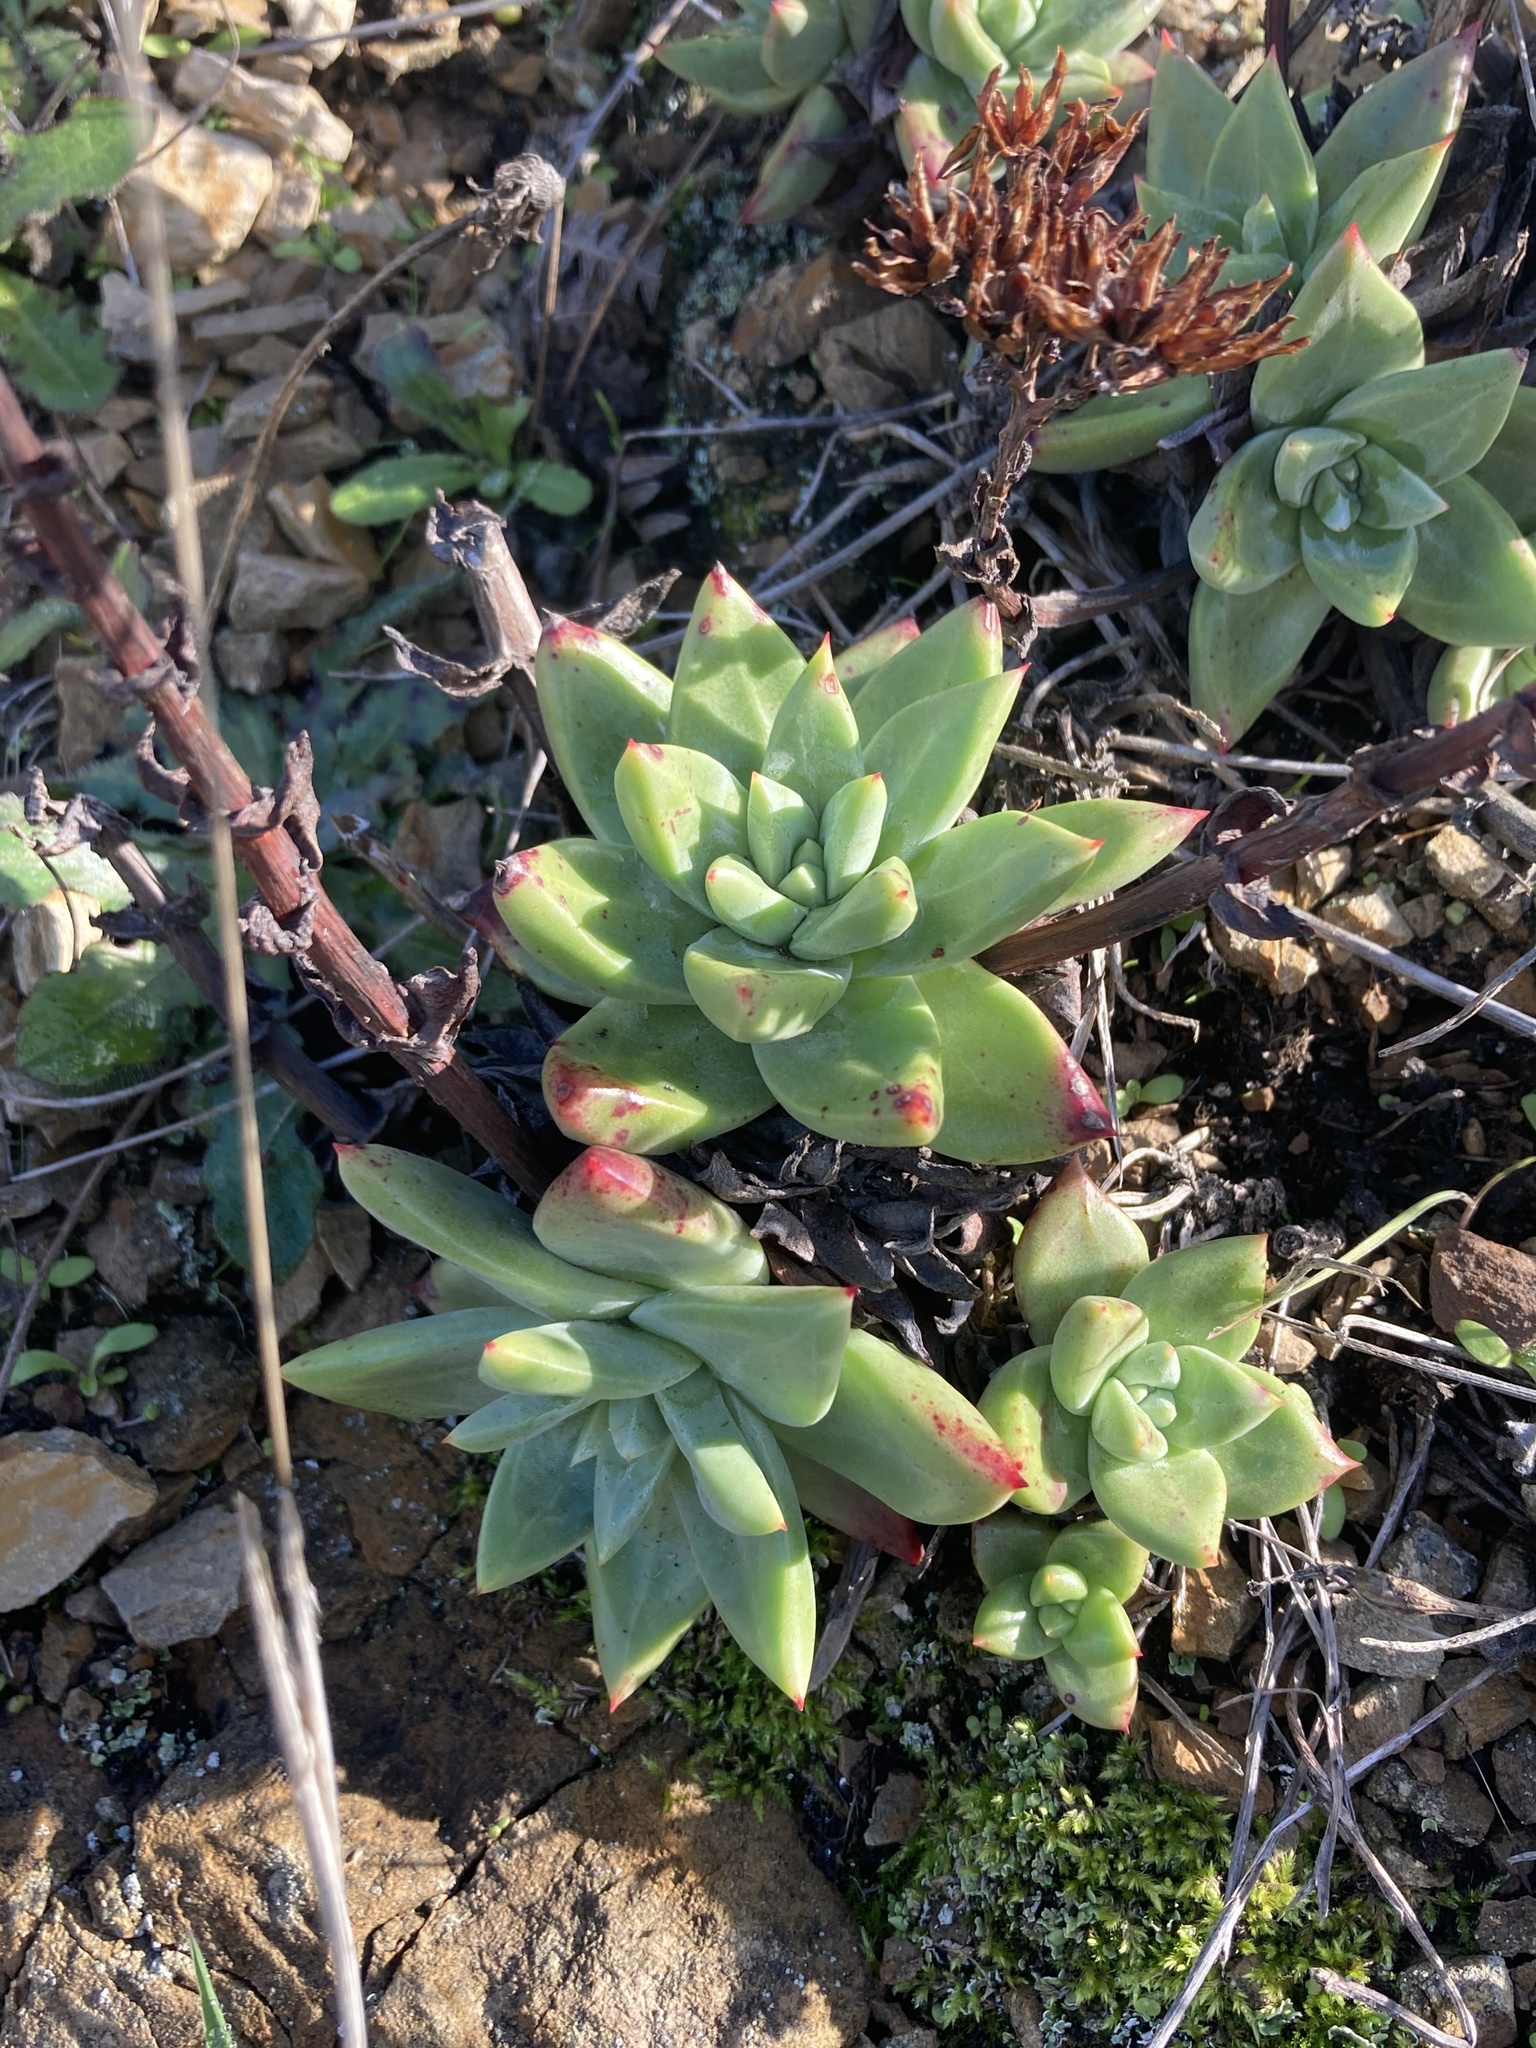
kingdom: Plantae
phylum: Tracheophyta
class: Magnoliopsida
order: Saxifragales
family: Crassulaceae
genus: Dudleya
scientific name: Dudleya farinosa
